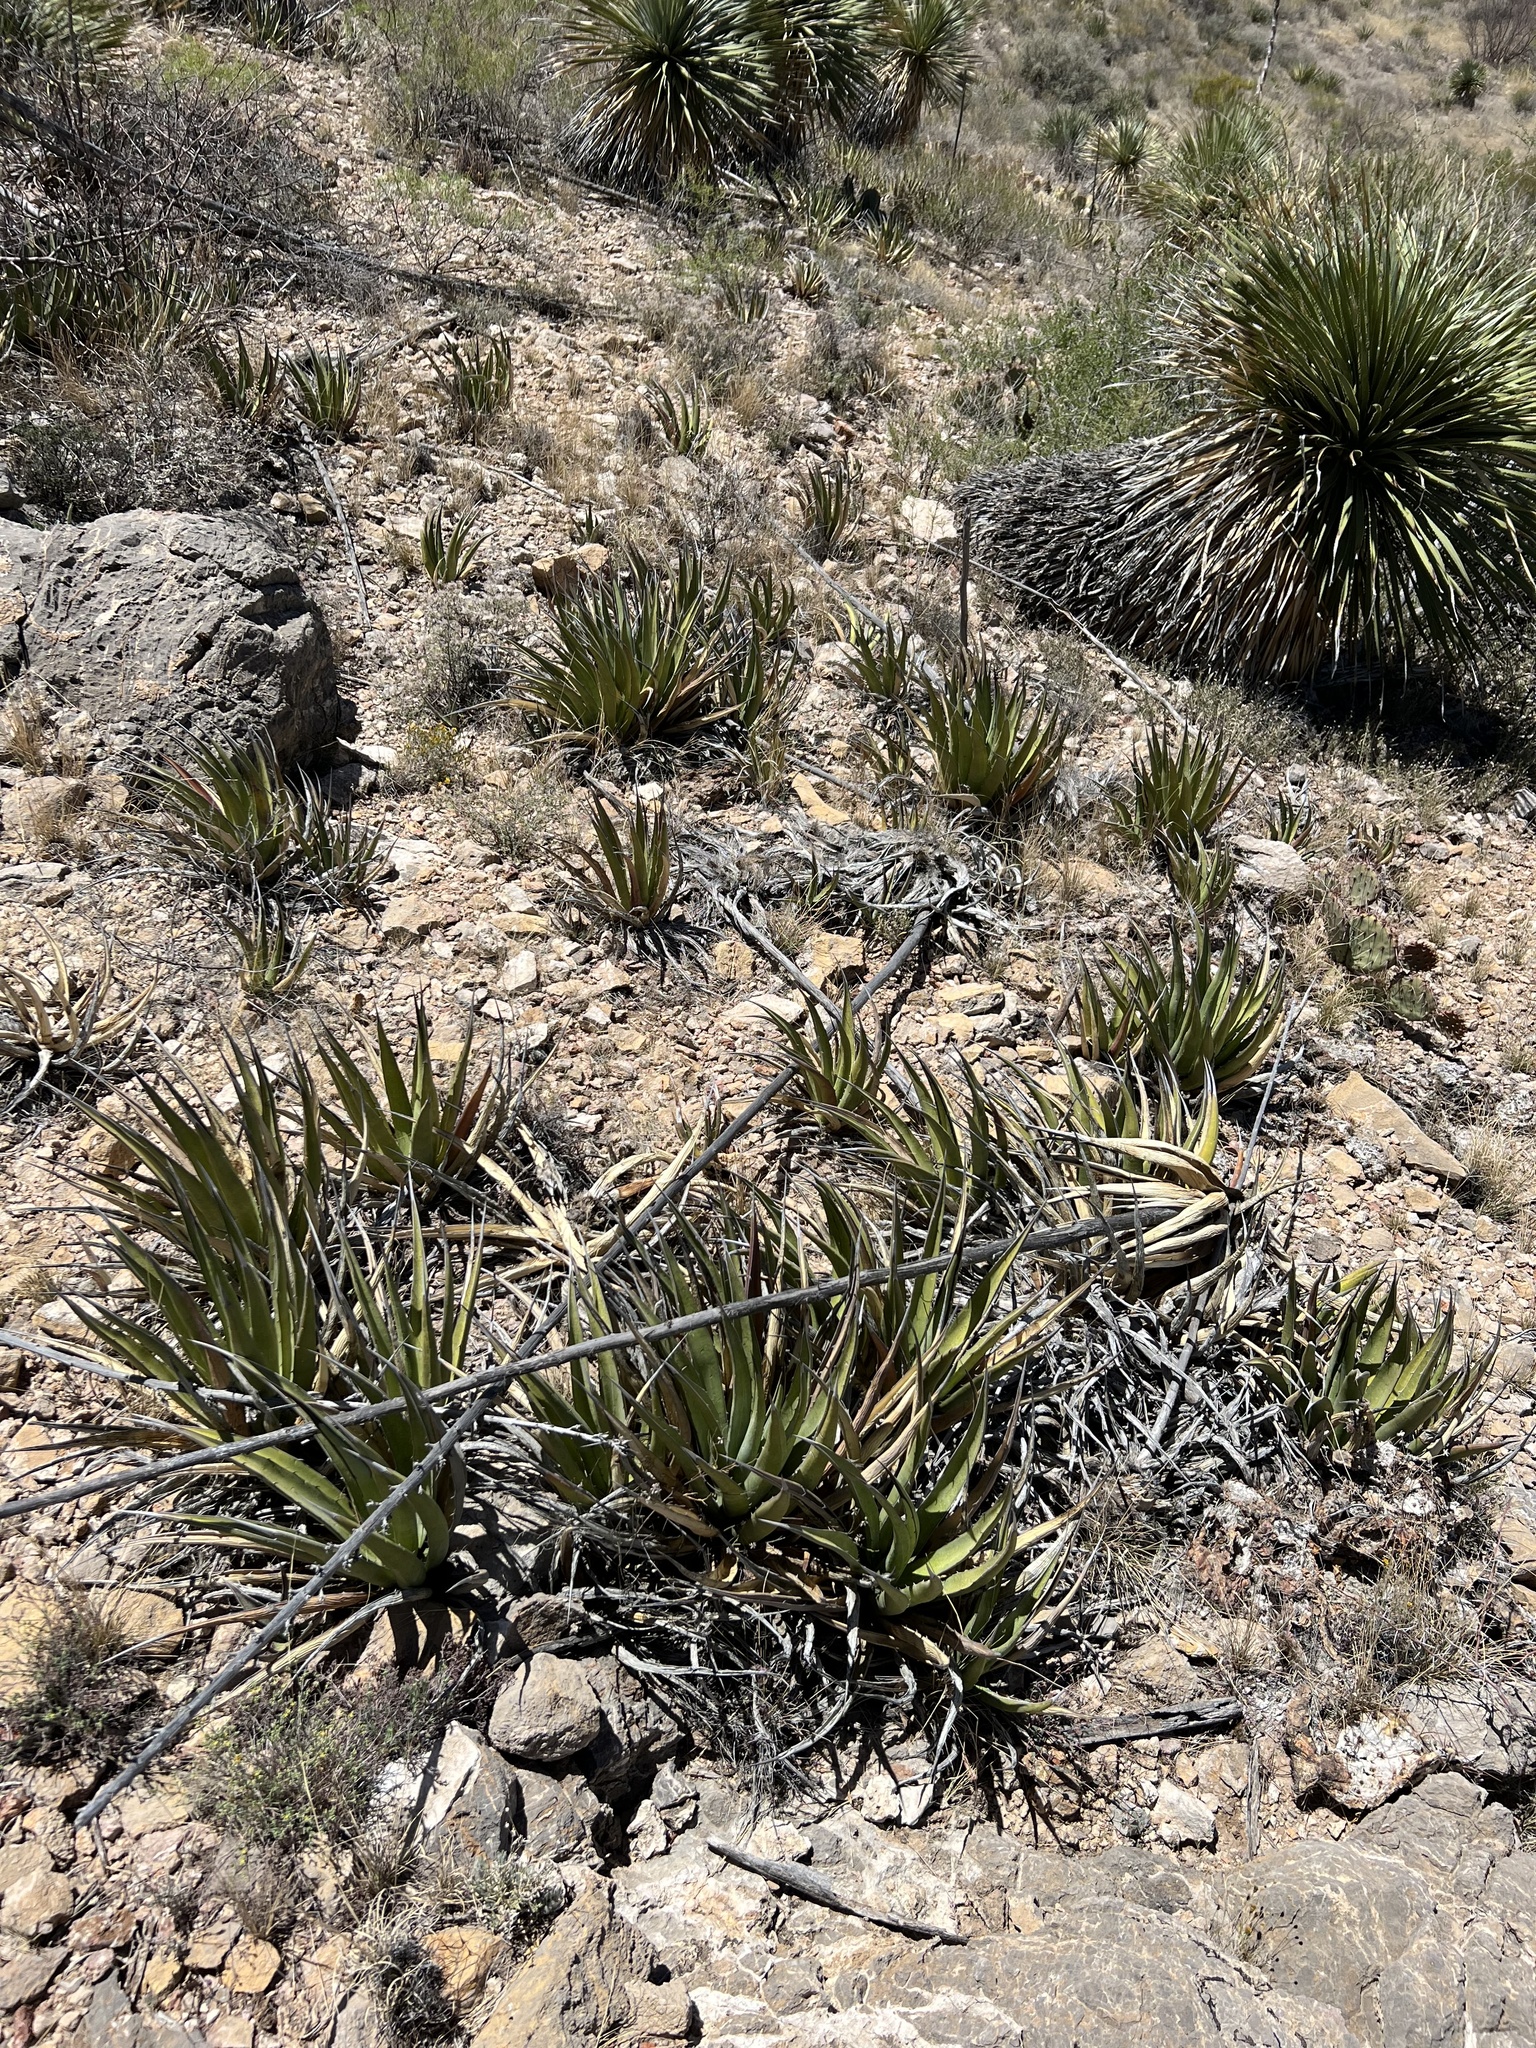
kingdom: Plantae
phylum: Tracheophyta
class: Liliopsida
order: Asparagales
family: Asparagaceae
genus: Agave
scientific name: Agave lechuguilla
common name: Lecheguilla agave
